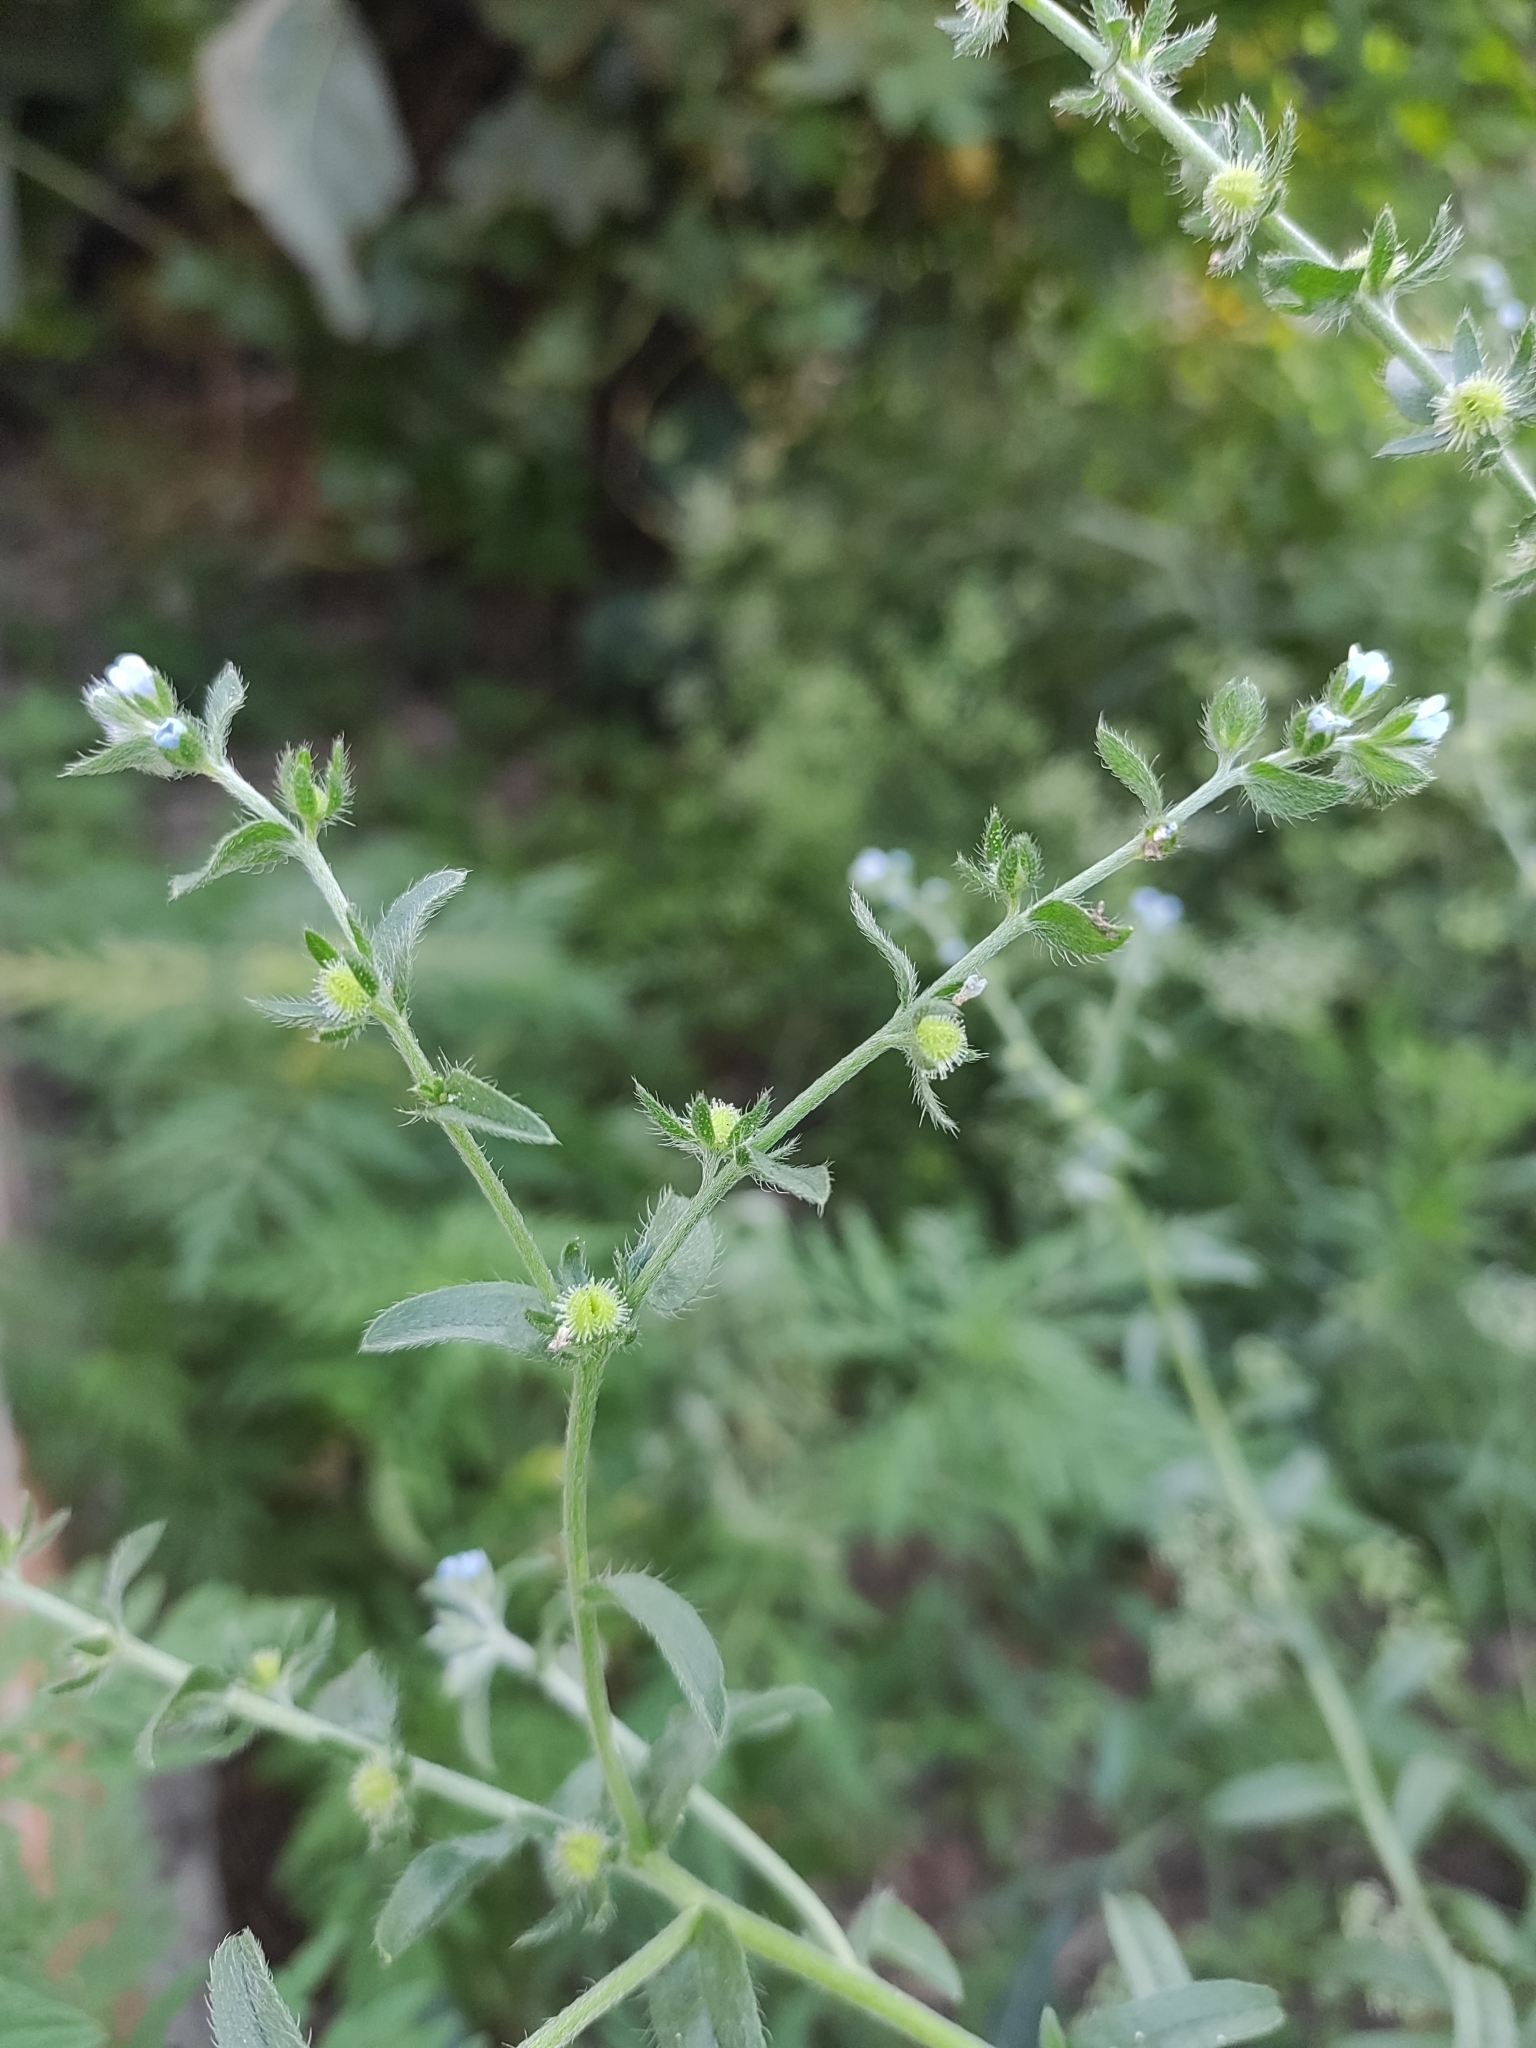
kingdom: Plantae
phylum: Tracheophyta
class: Magnoliopsida
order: Boraginales
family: Boraginaceae
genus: Lappula
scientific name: Lappula squarrosa
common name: European stickseed
